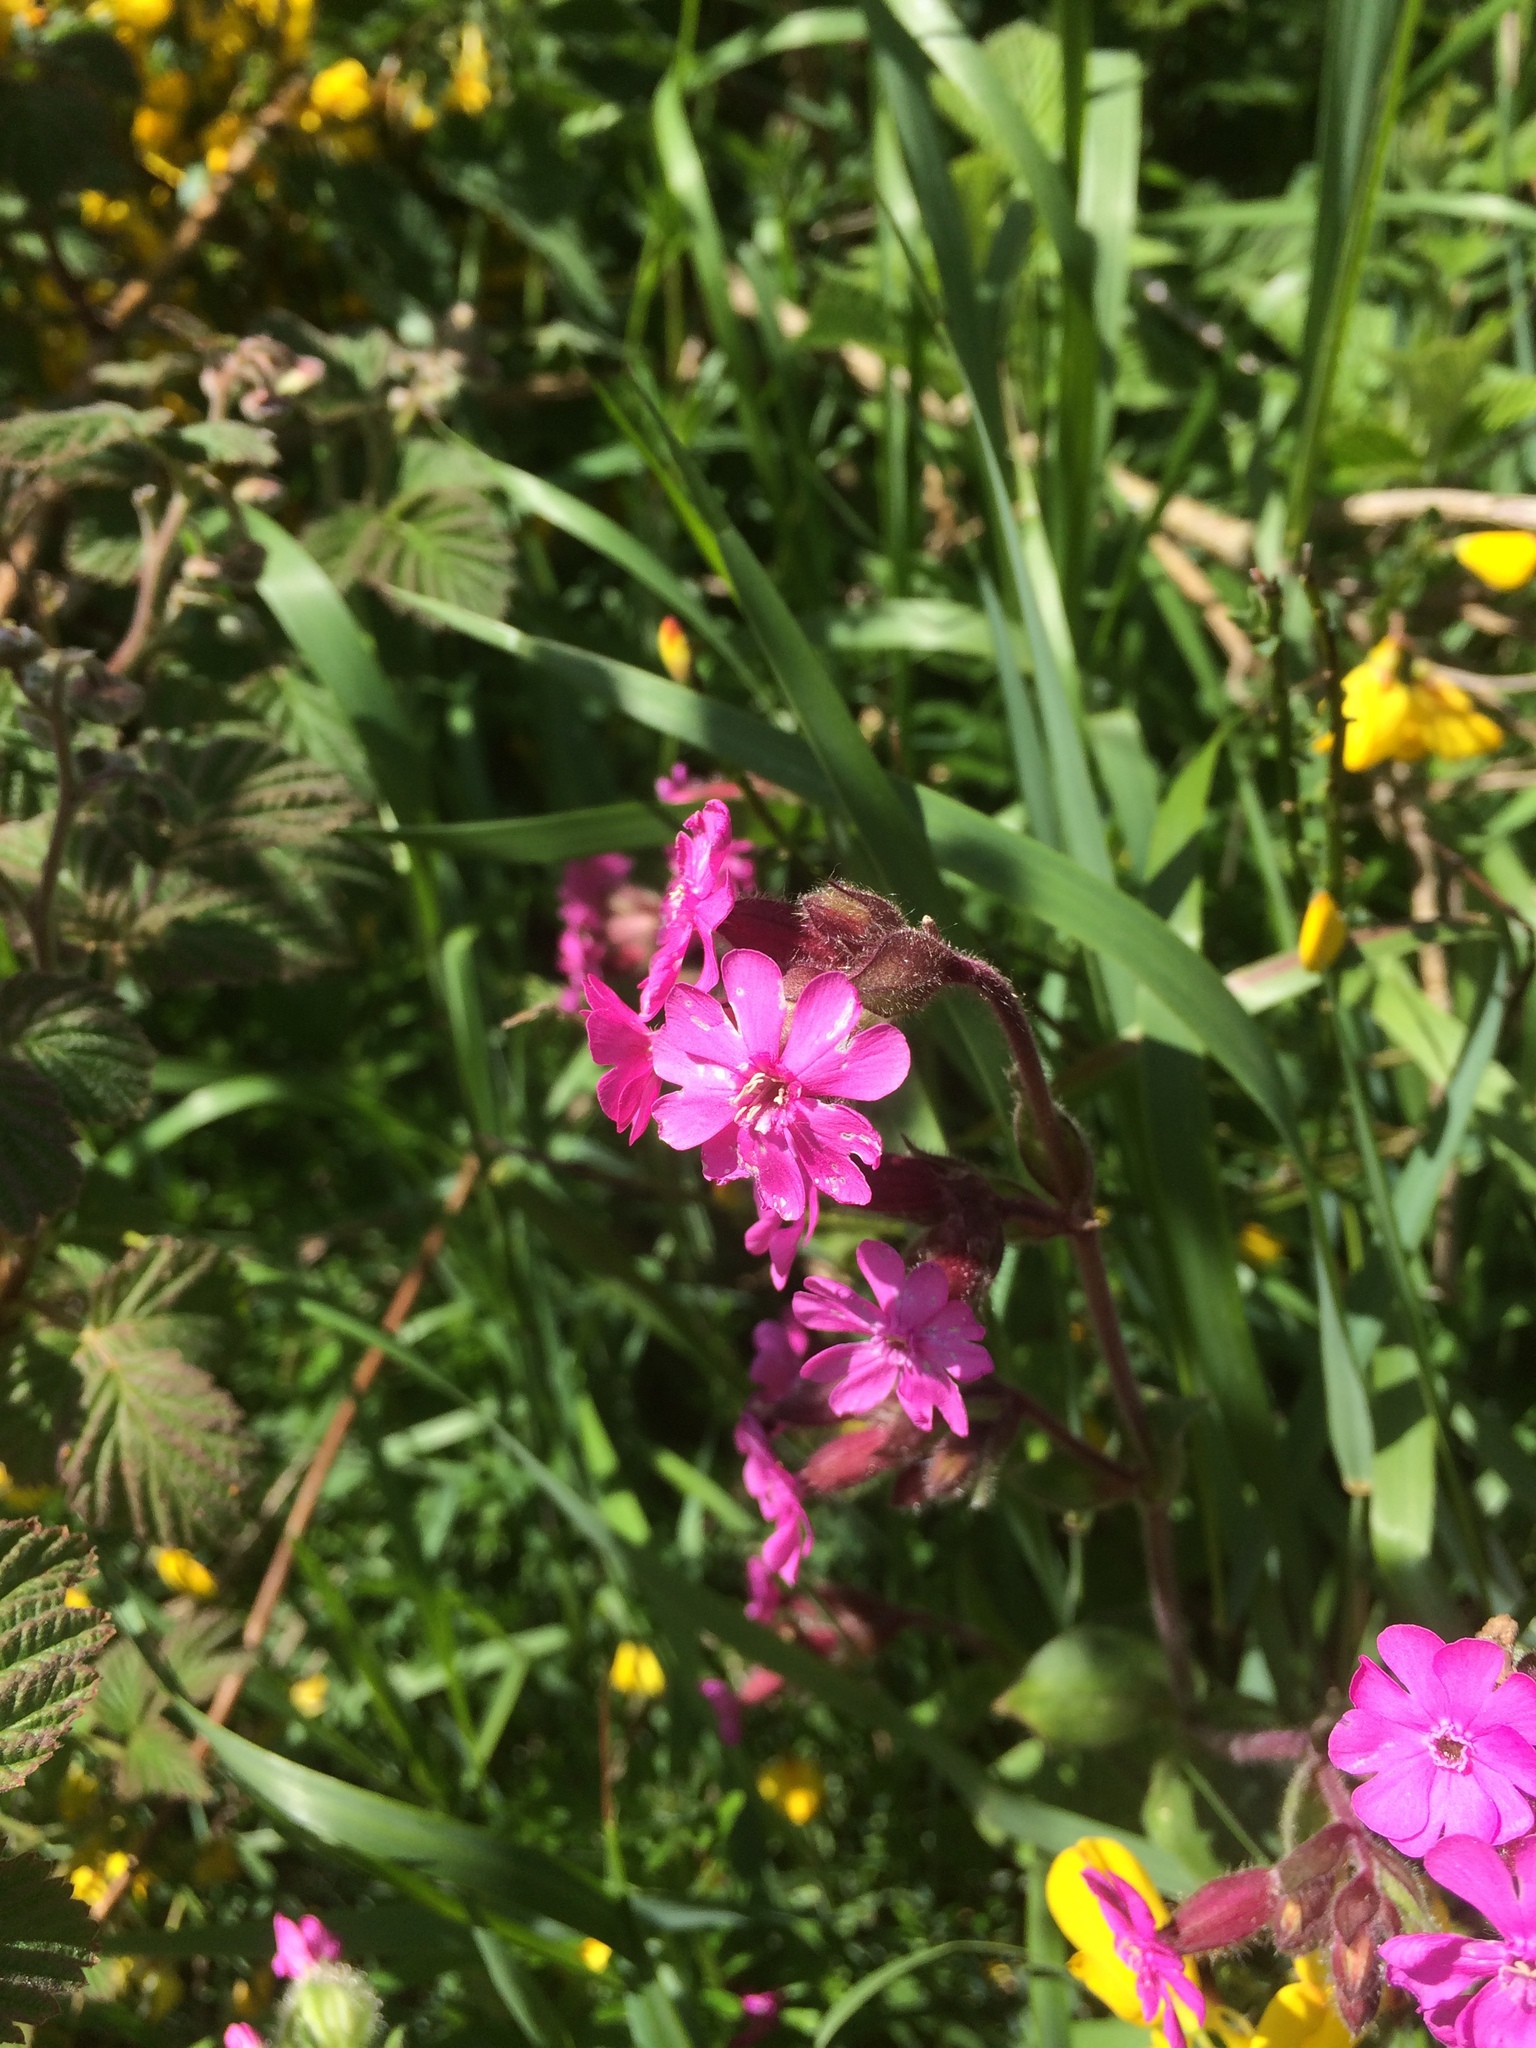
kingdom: Plantae
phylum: Tracheophyta
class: Magnoliopsida
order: Caryophyllales
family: Caryophyllaceae
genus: Silene
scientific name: Silene dioica
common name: Red campion
